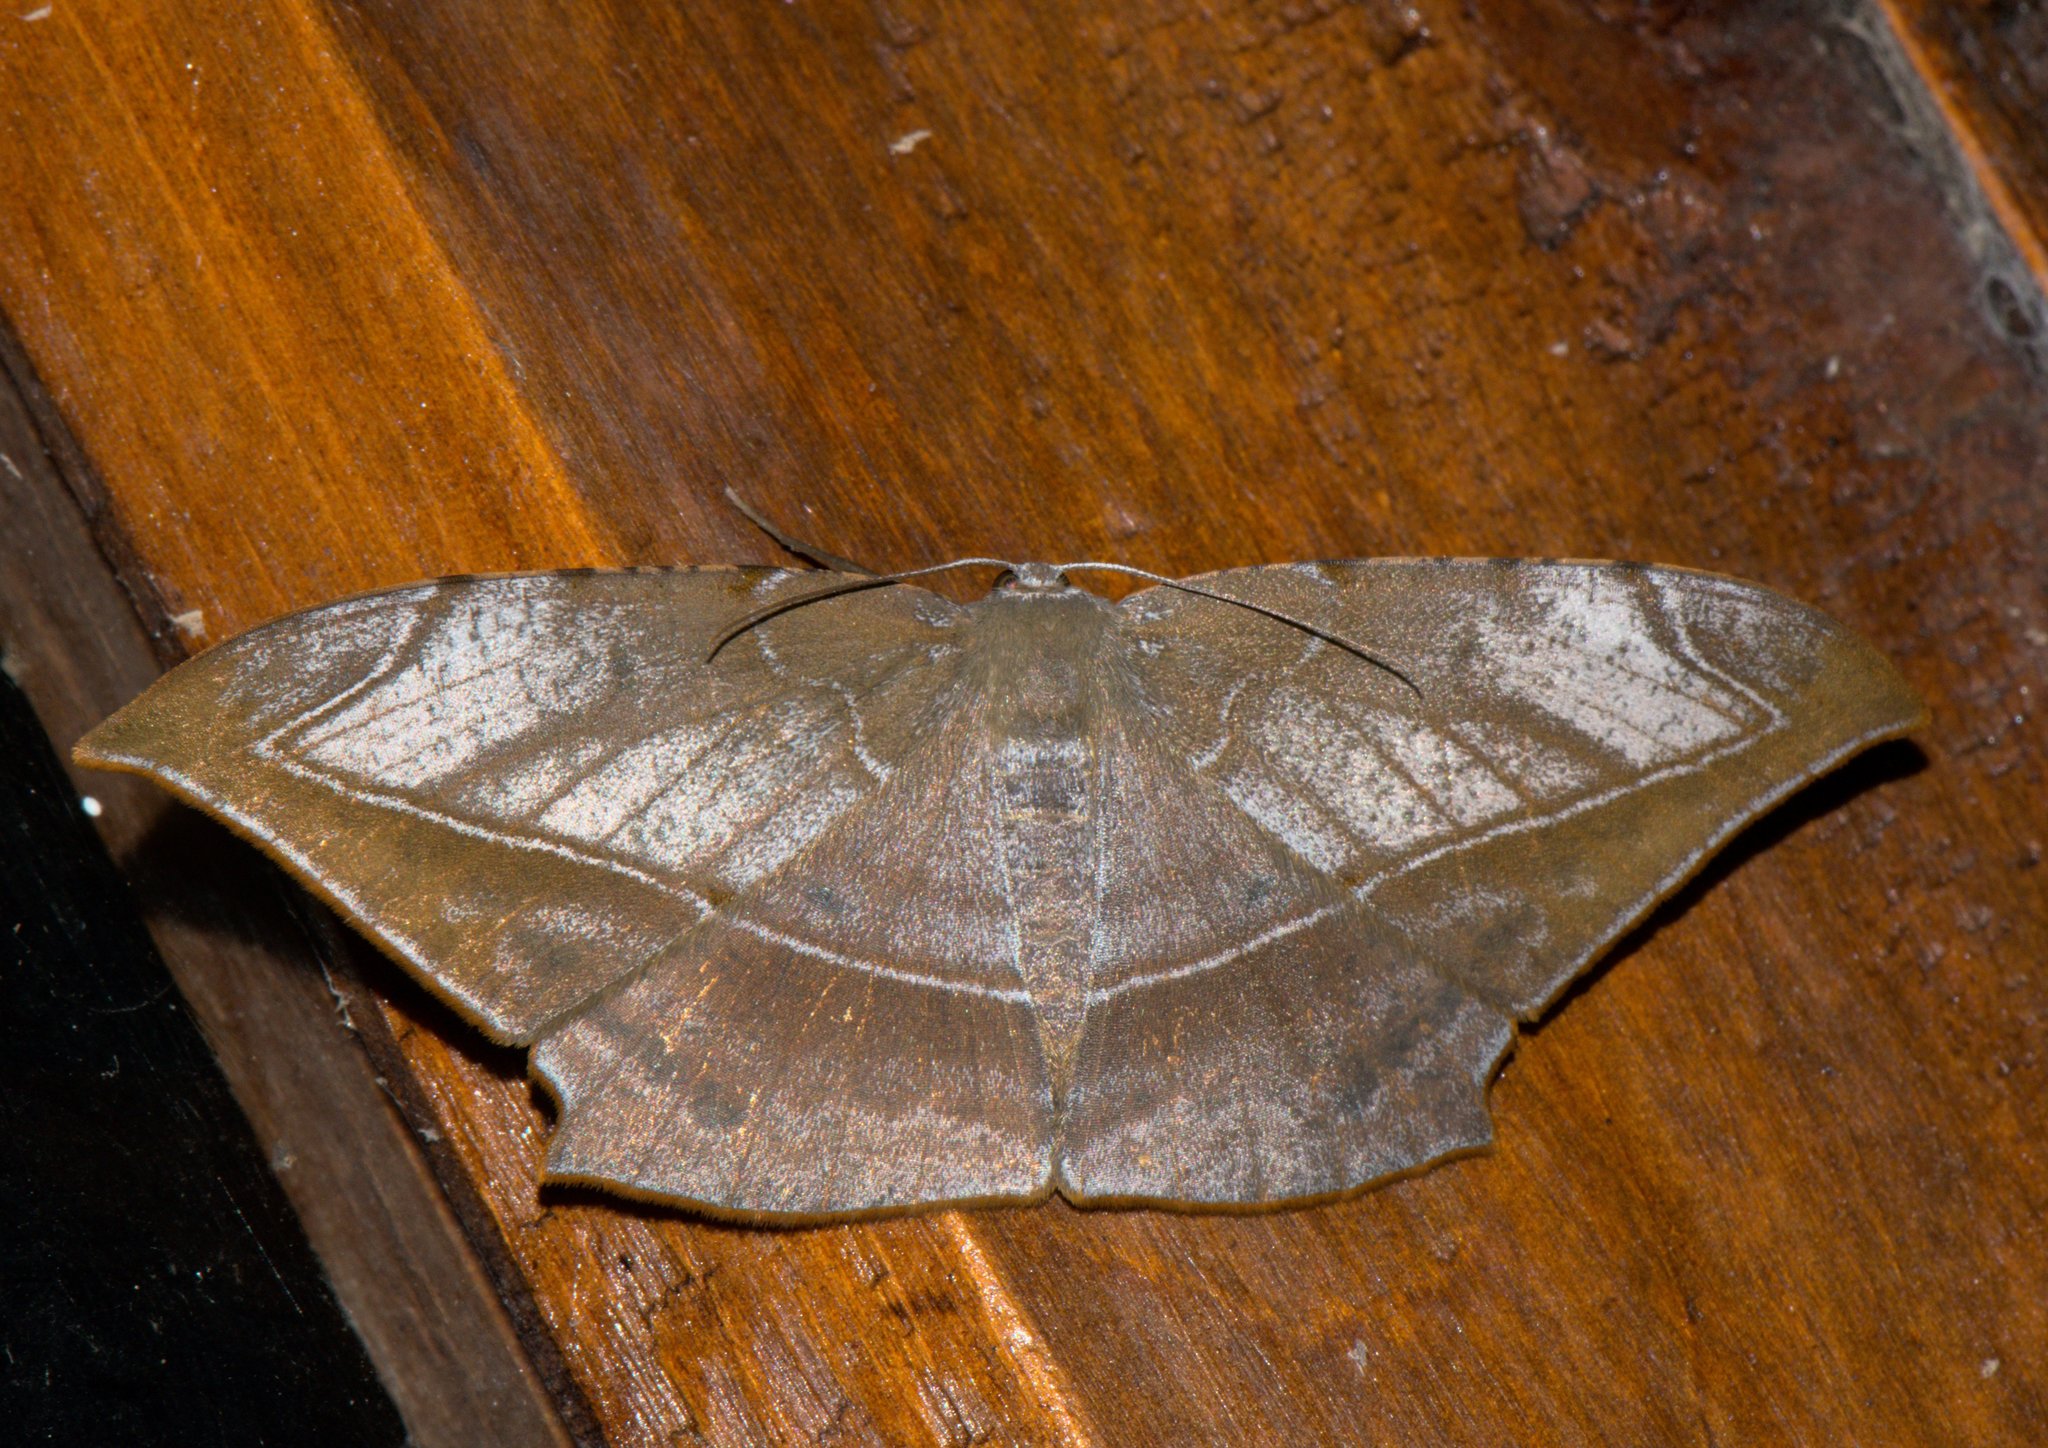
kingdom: Animalia
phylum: Arthropoda
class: Insecta
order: Lepidoptera
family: Geometridae
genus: Dalima
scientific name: Dalima schistacearia
